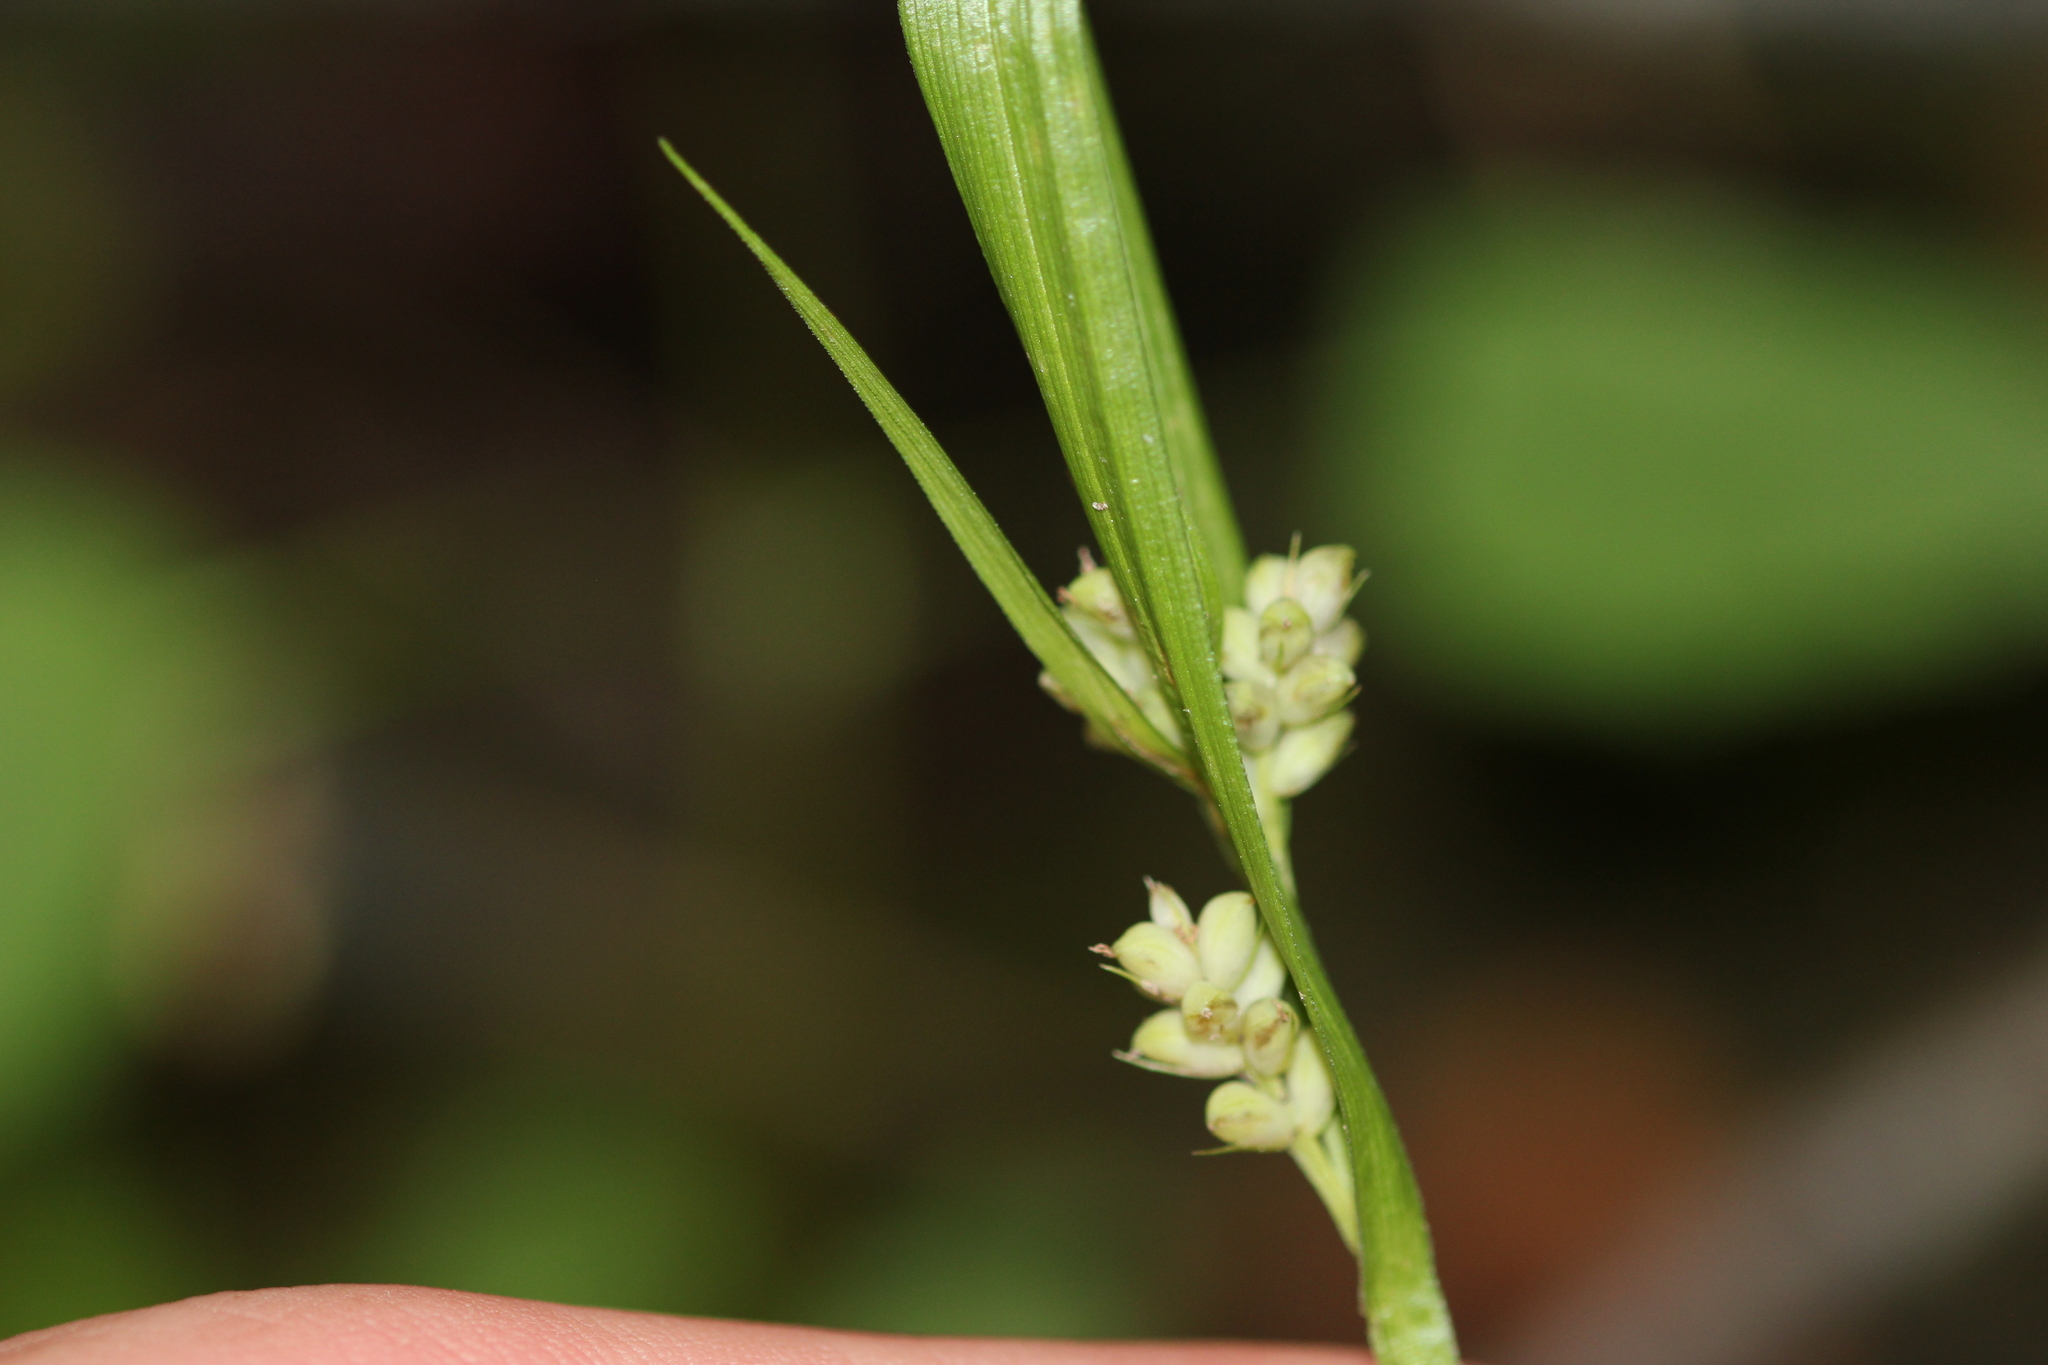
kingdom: Plantae
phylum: Tracheophyta
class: Liliopsida
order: Poales
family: Cyperaceae
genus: Carex
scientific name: Carex blanda
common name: Bland sedge
